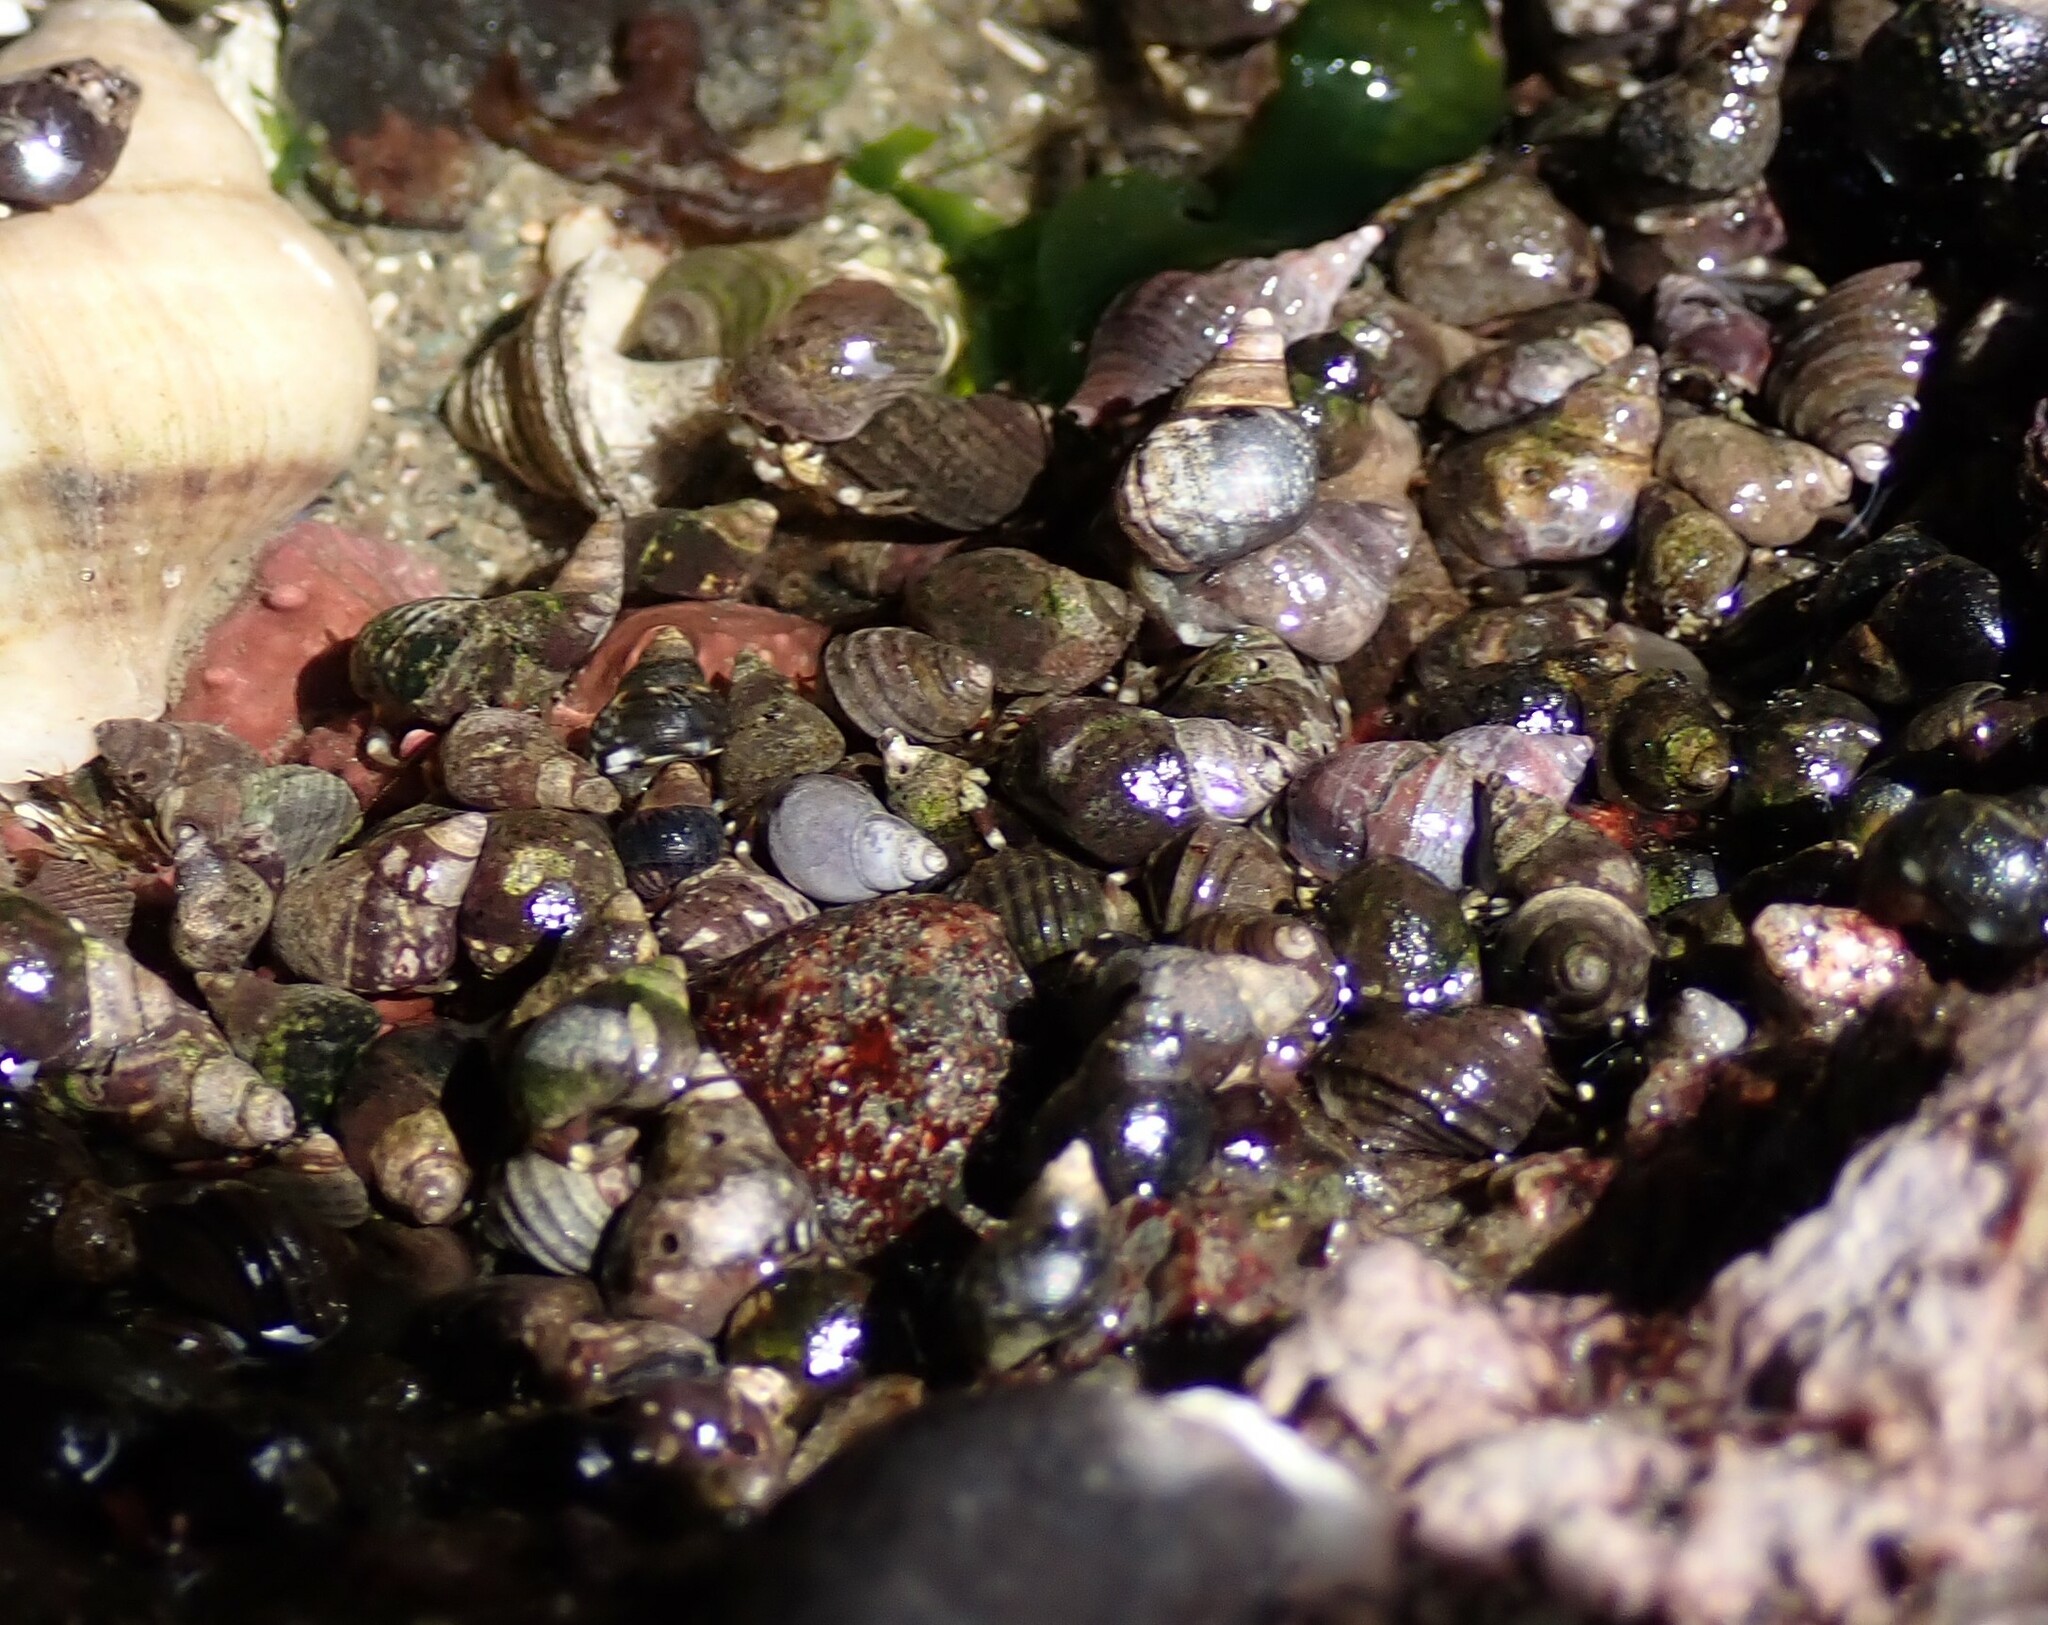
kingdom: Animalia
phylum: Mollusca
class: Gastropoda
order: Littorinimorpha
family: Littorinidae
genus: Littorina
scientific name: Littorina
